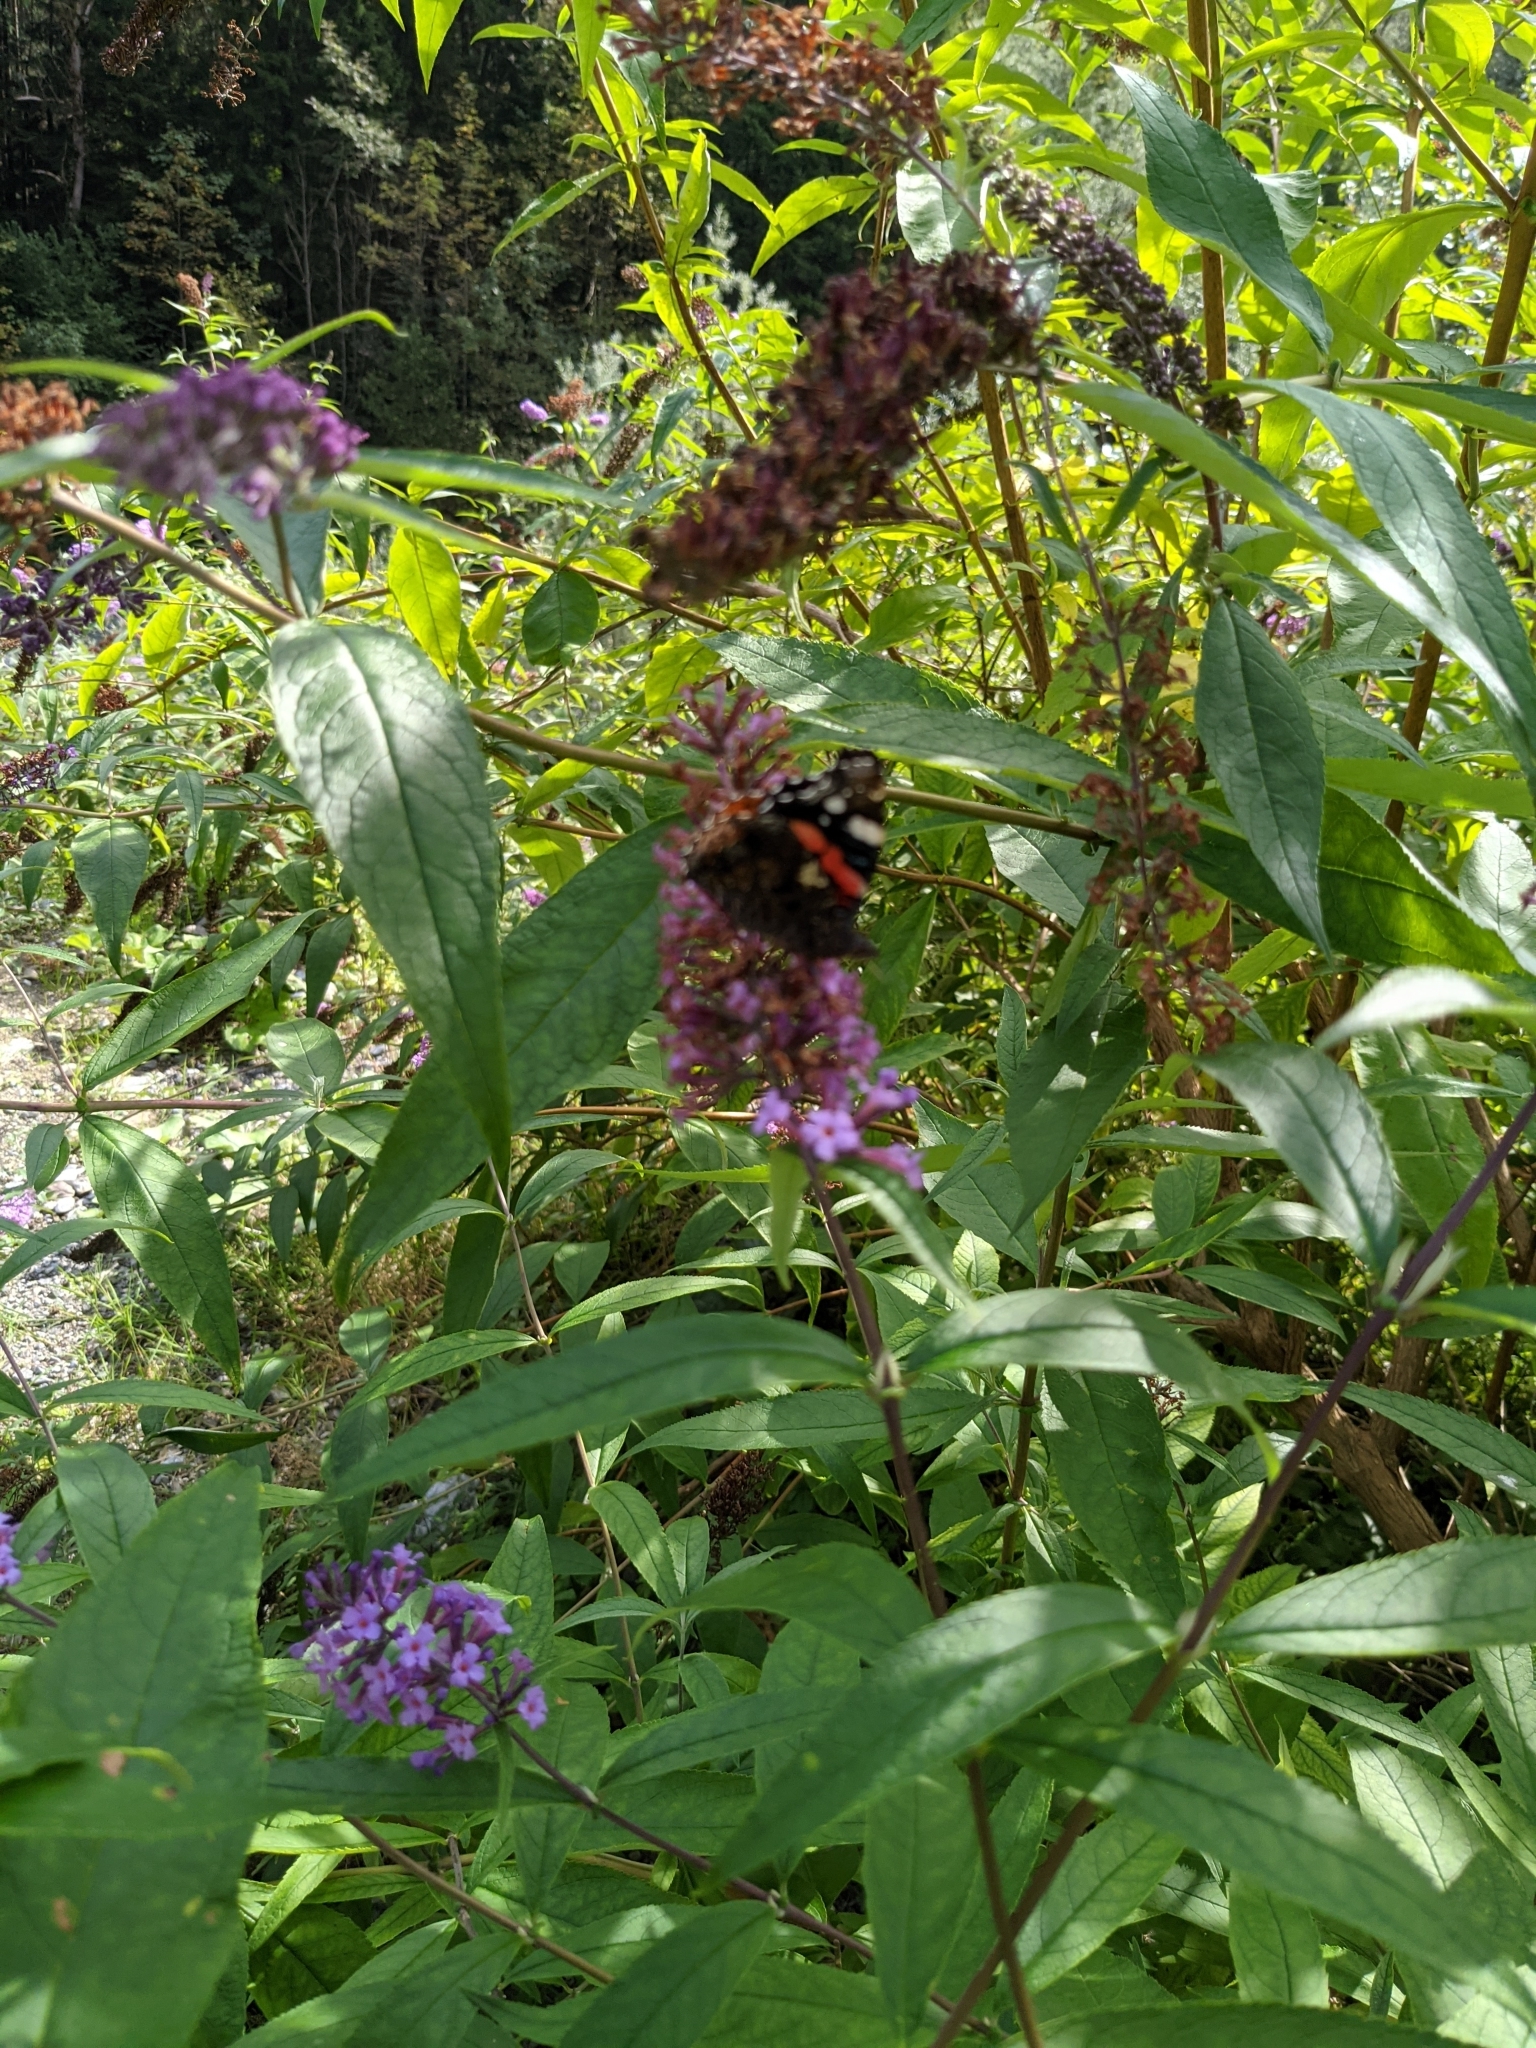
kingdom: Animalia
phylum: Arthropoda
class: Insecta
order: Lepidoptera
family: Nymphalidae
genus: Vanessa
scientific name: Vanessa atalanta
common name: Red admiral
